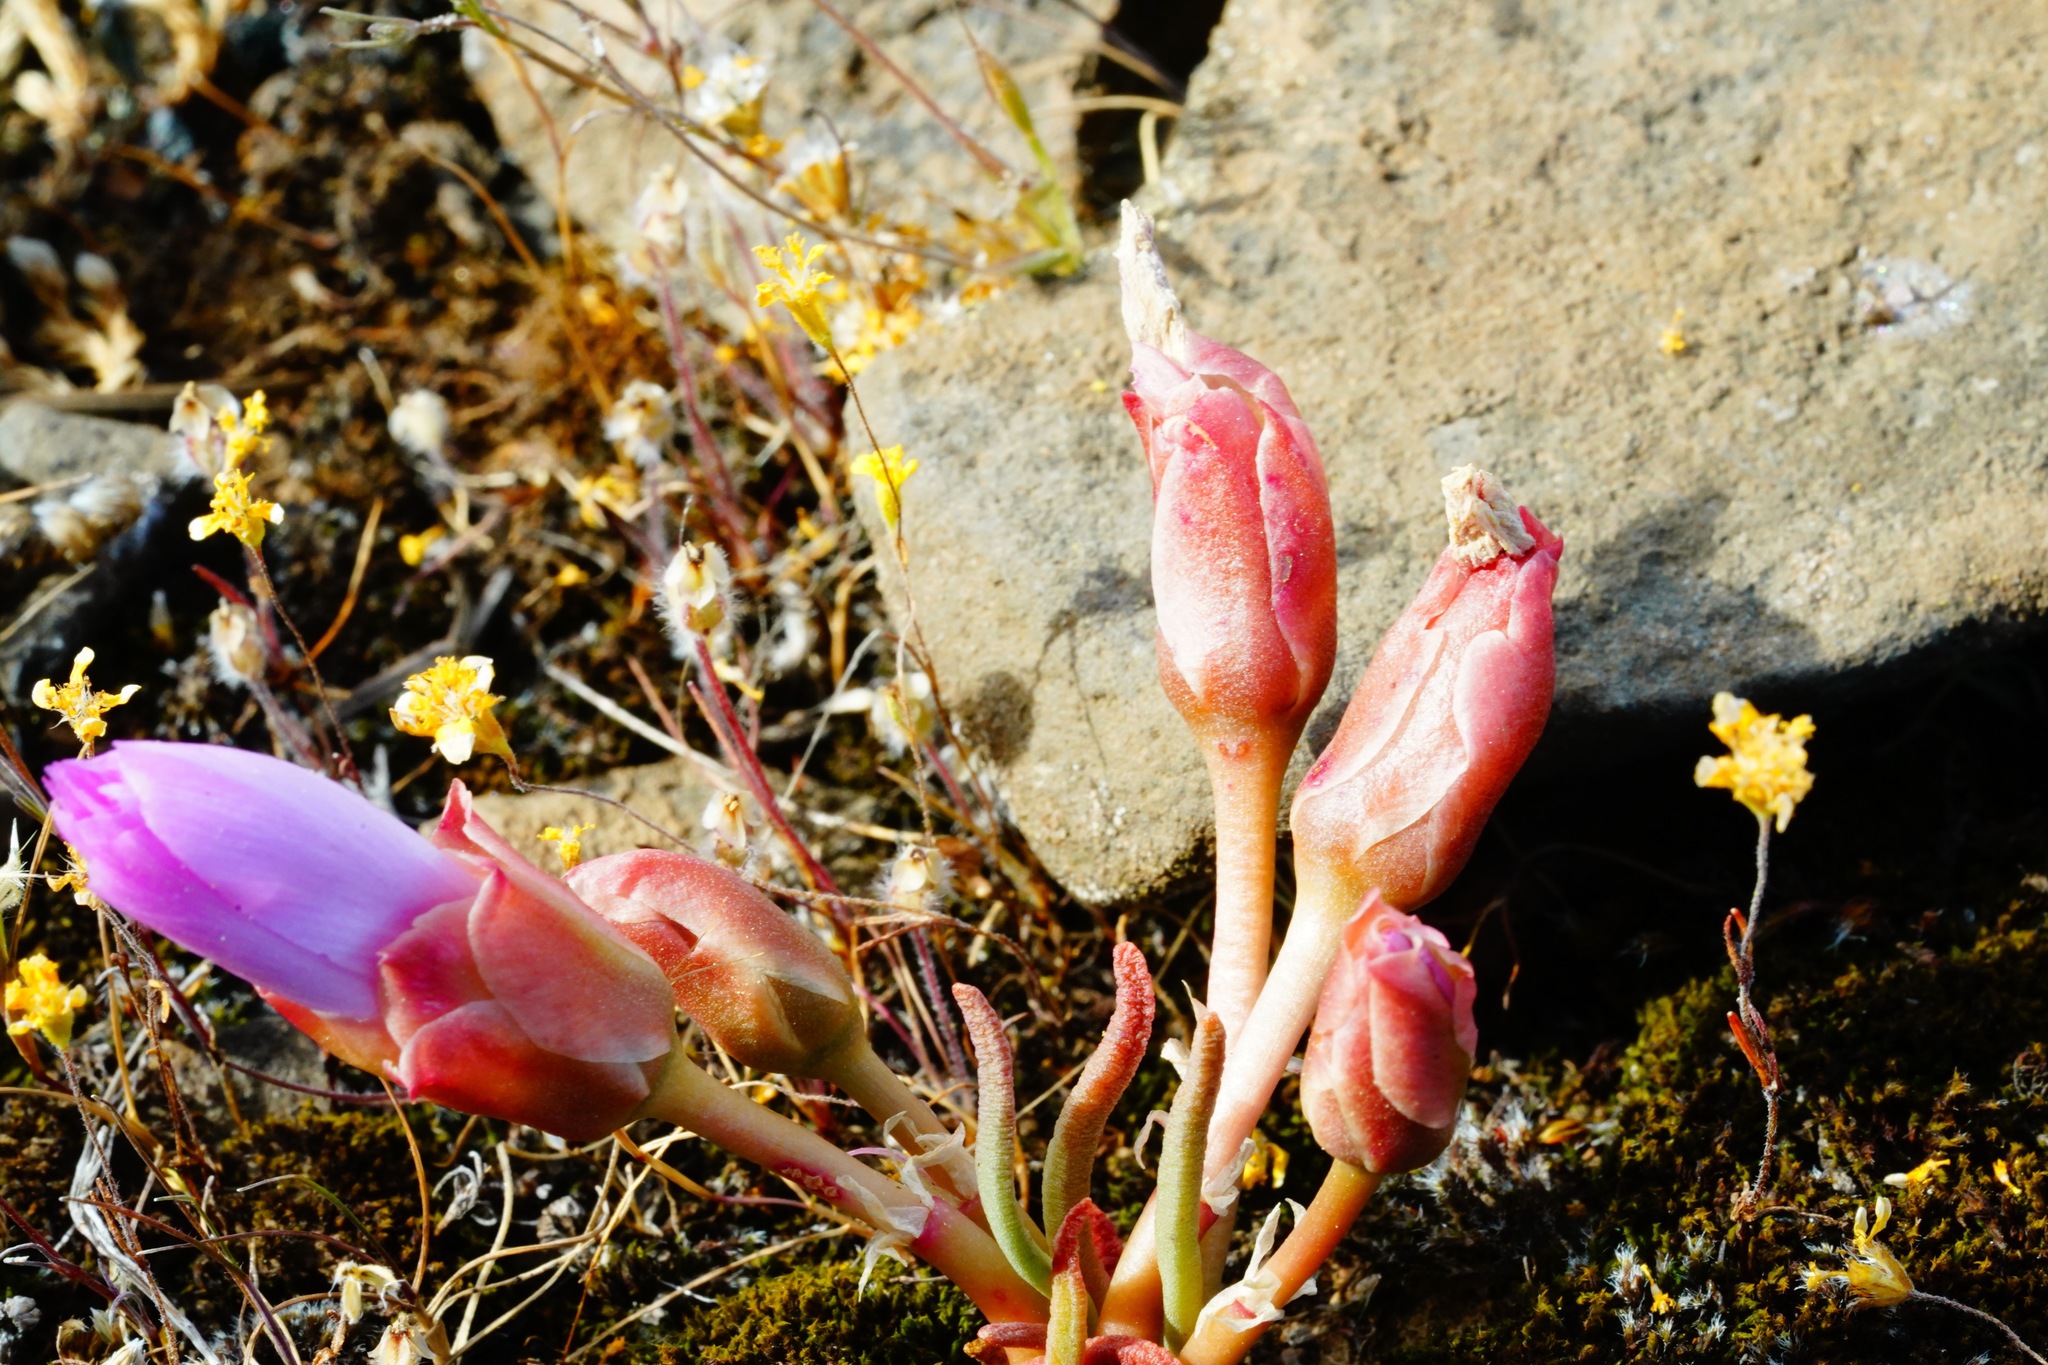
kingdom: Plantae
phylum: Tracheophyta
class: Magnoliopsida
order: Caryophyllales
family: Montiaceae
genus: Lewisia
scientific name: Lewisia rediviva
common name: Bitter-root
